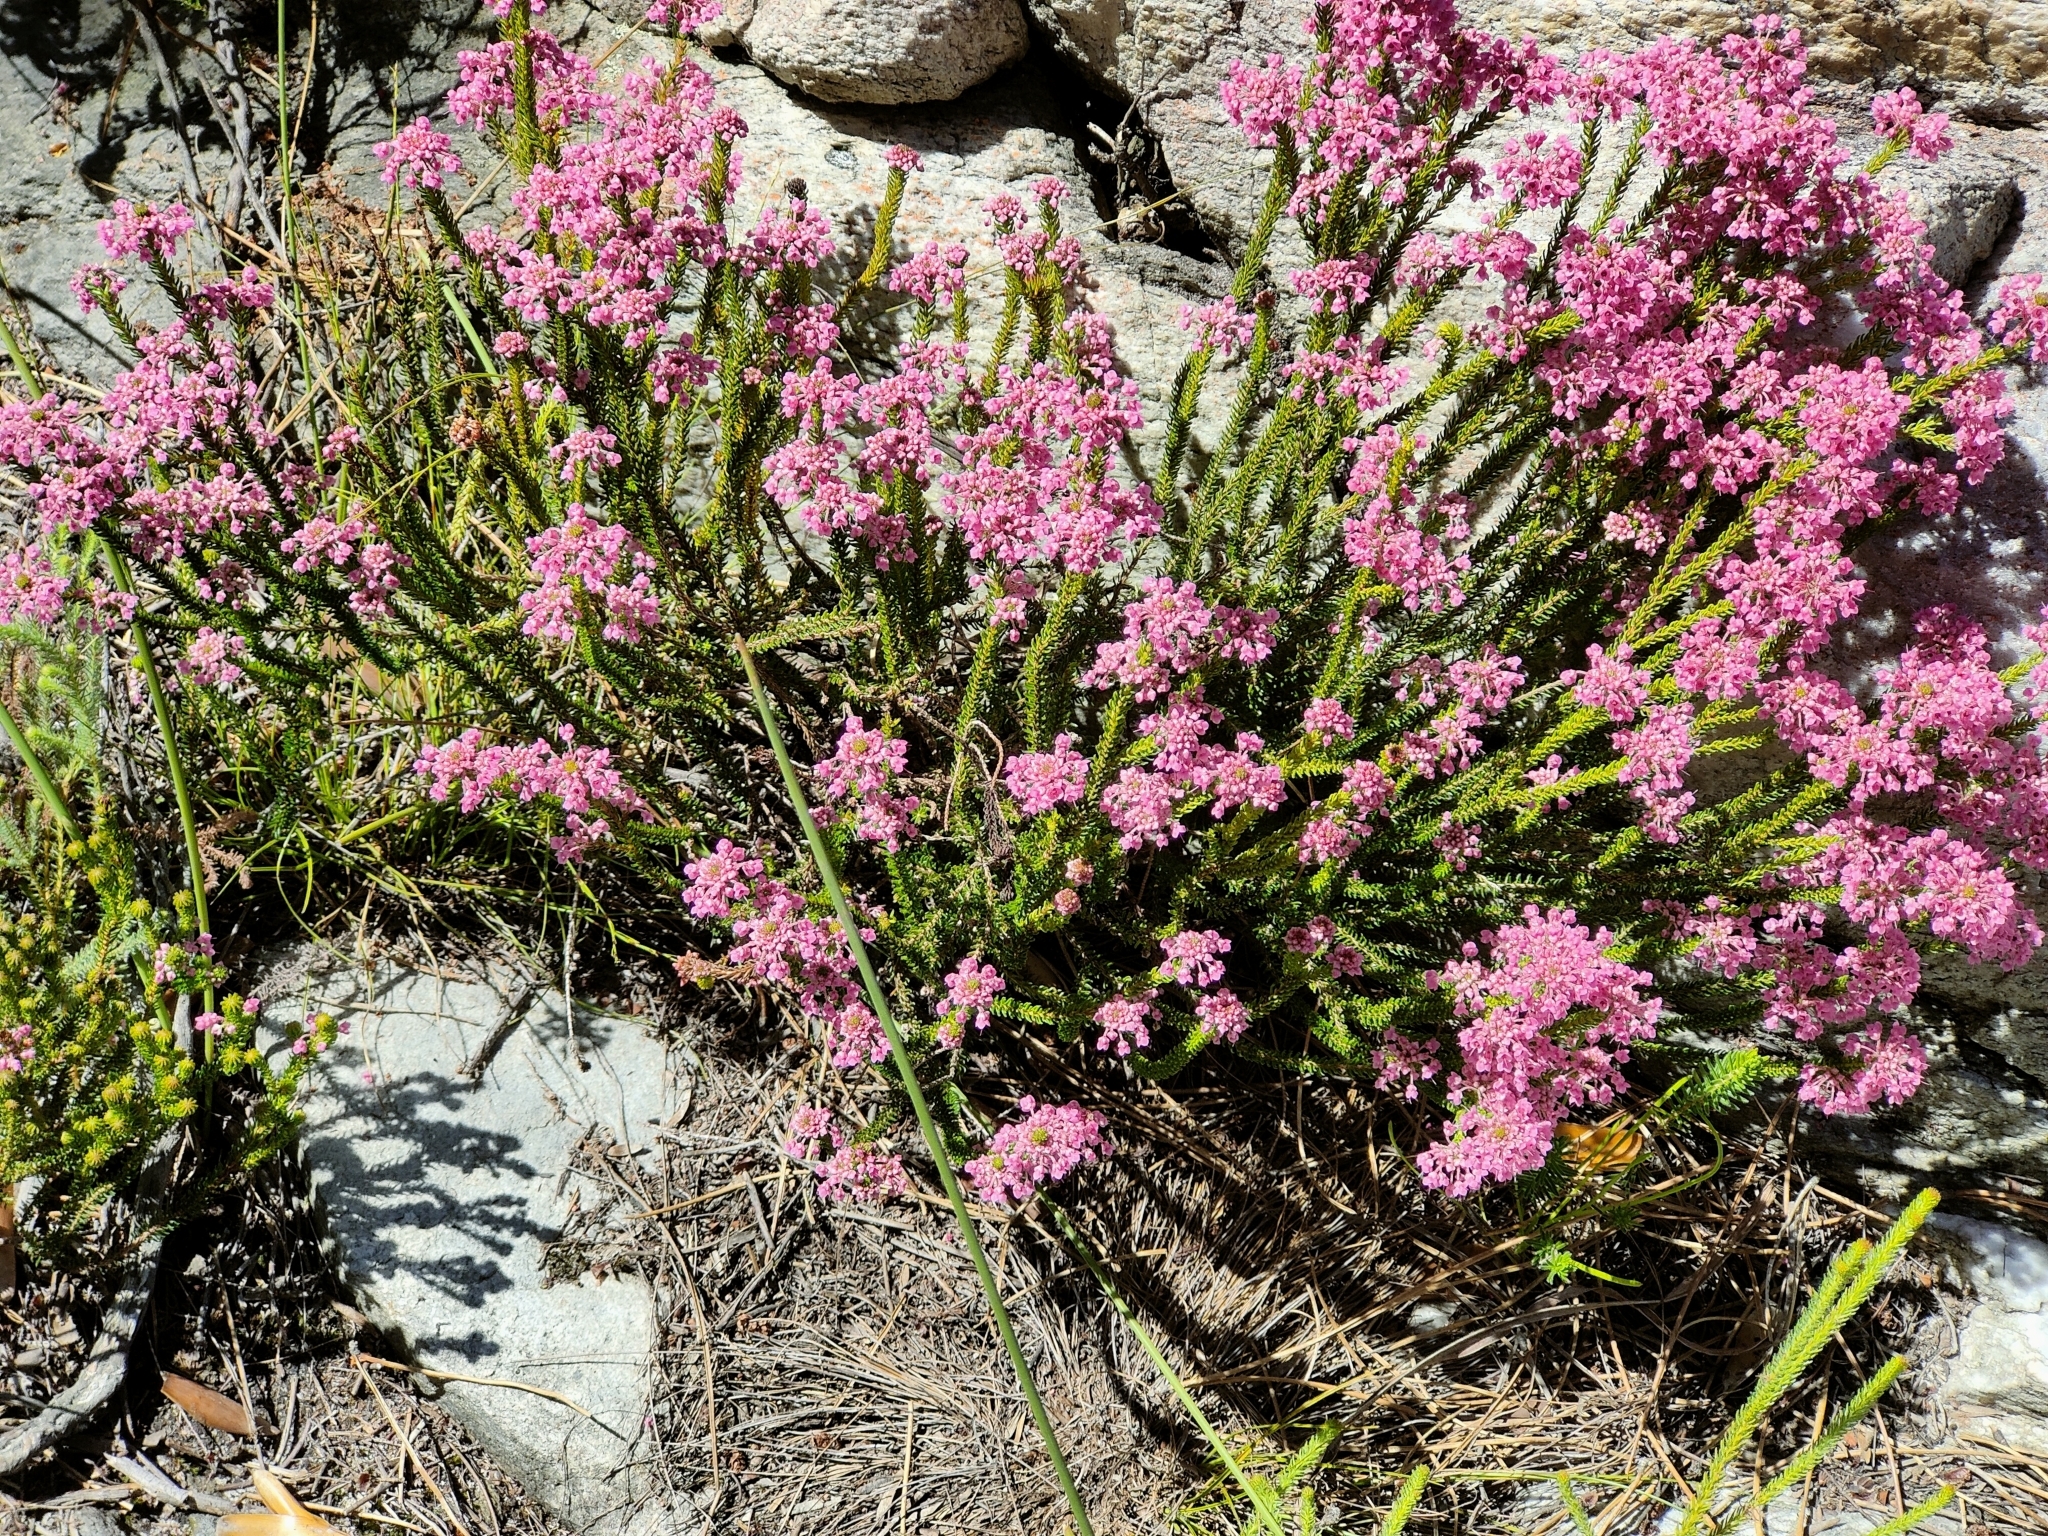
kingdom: Plantae
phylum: Tracheophyta
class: Magnoliopsida
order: Ericales
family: Ericaceae
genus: Erica
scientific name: Erica seriphiifolia
